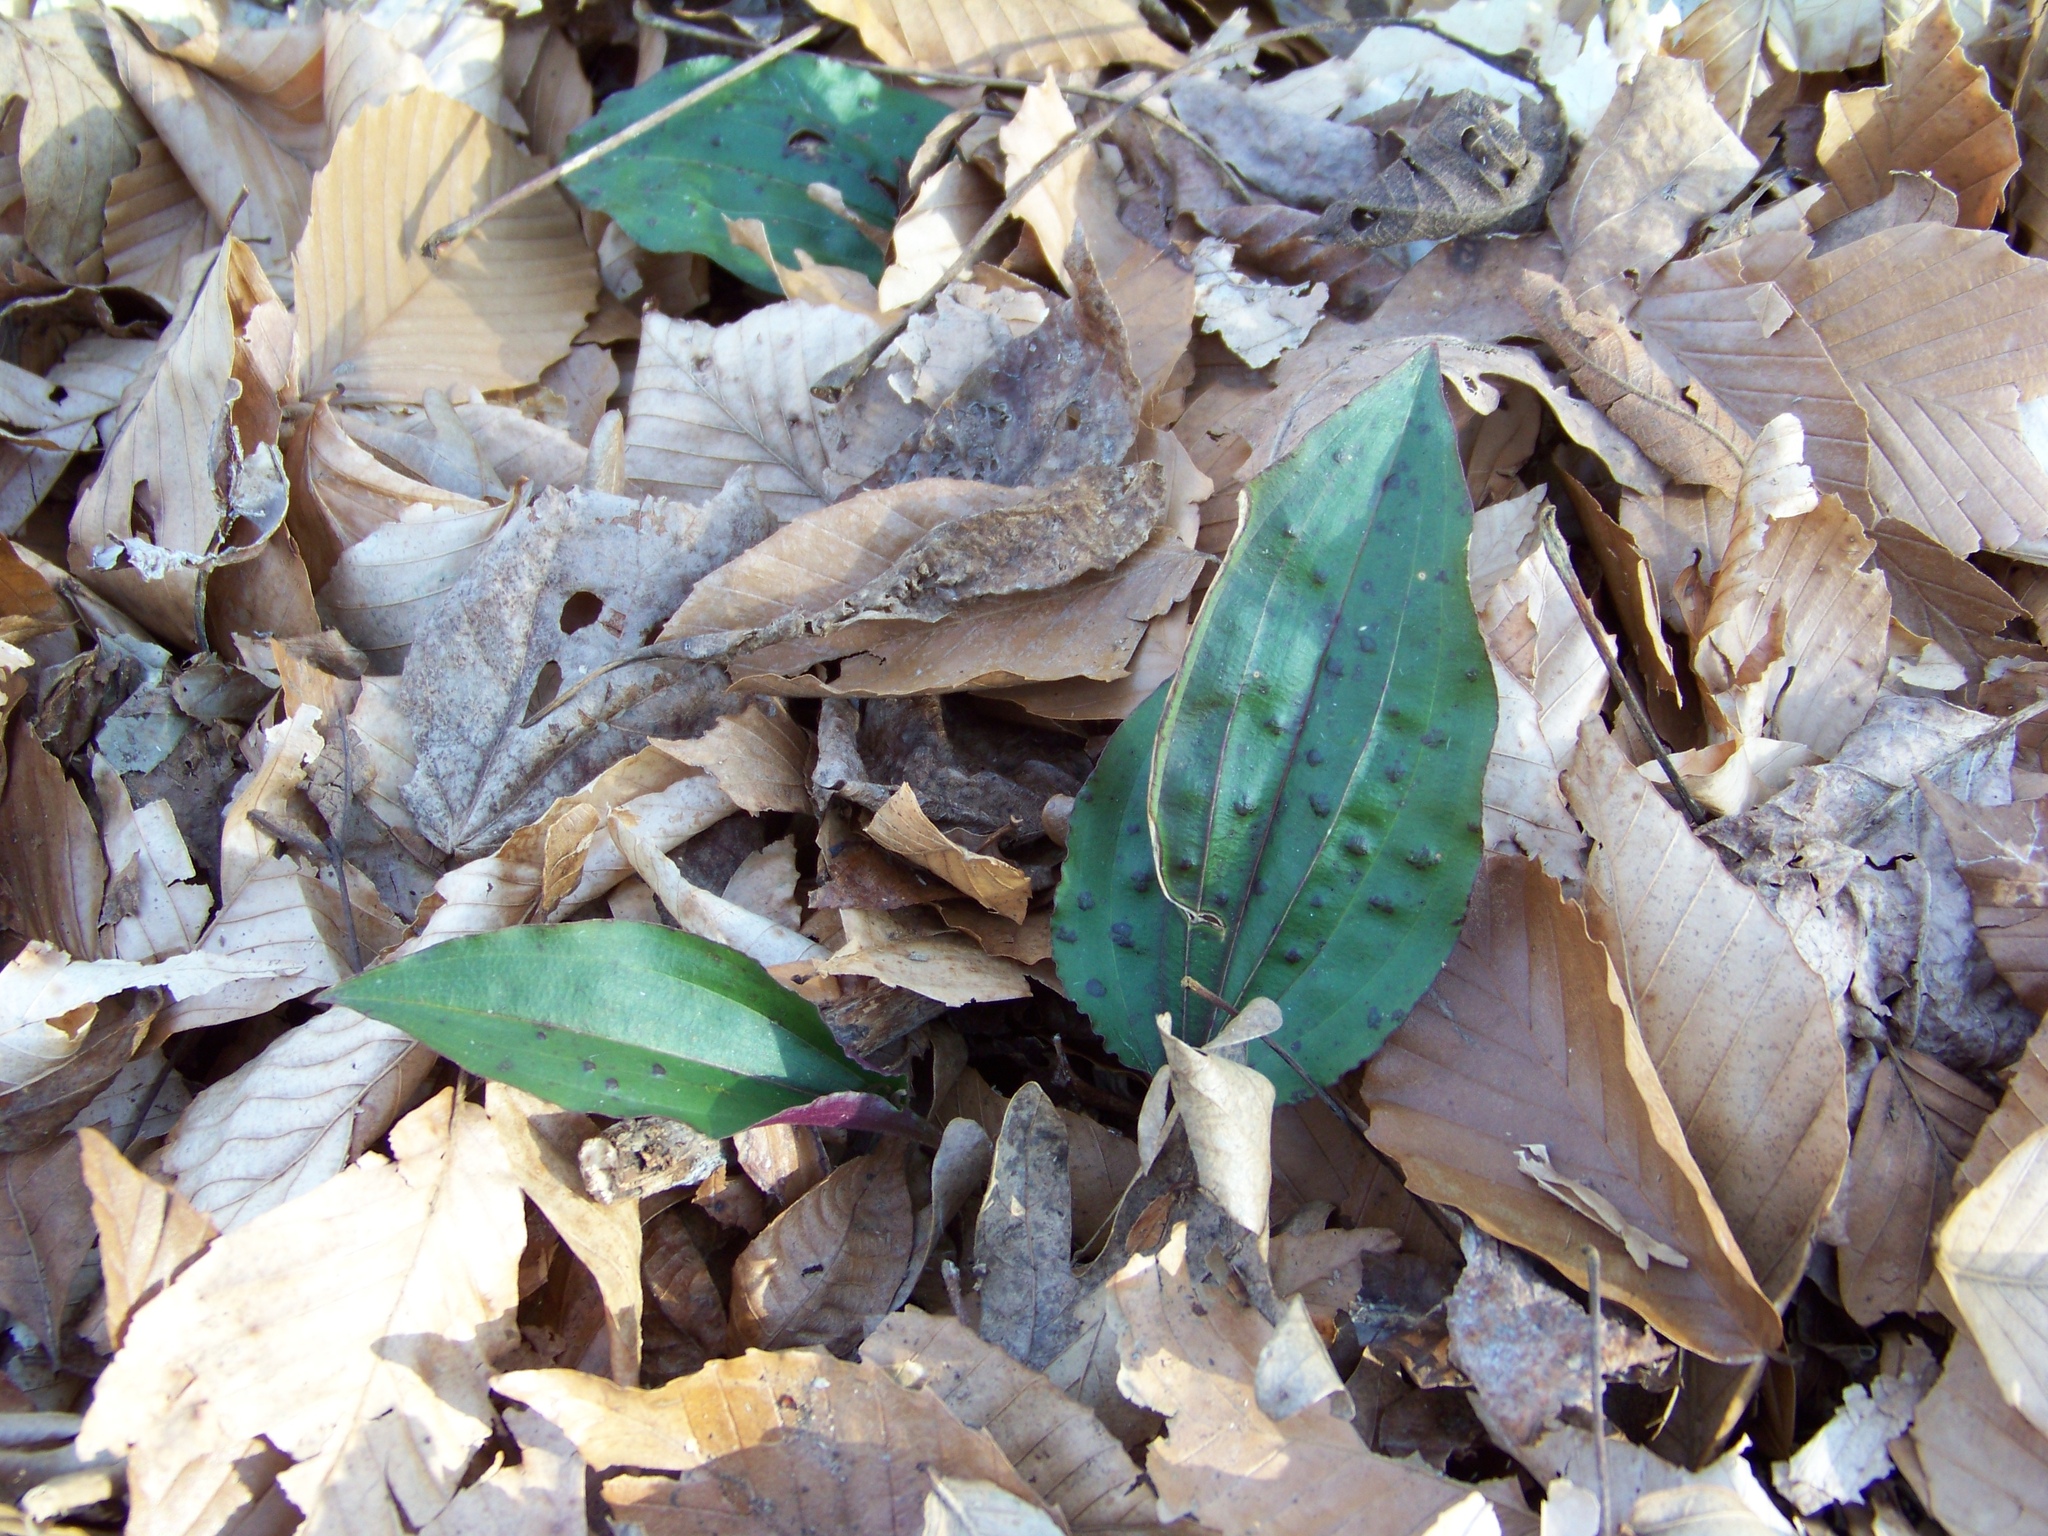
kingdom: Plantae
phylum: Tracheophyta
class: Liliopsida
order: Asparagales
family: Orchidaceae
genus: Tipularia
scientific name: Tipularia discolor
